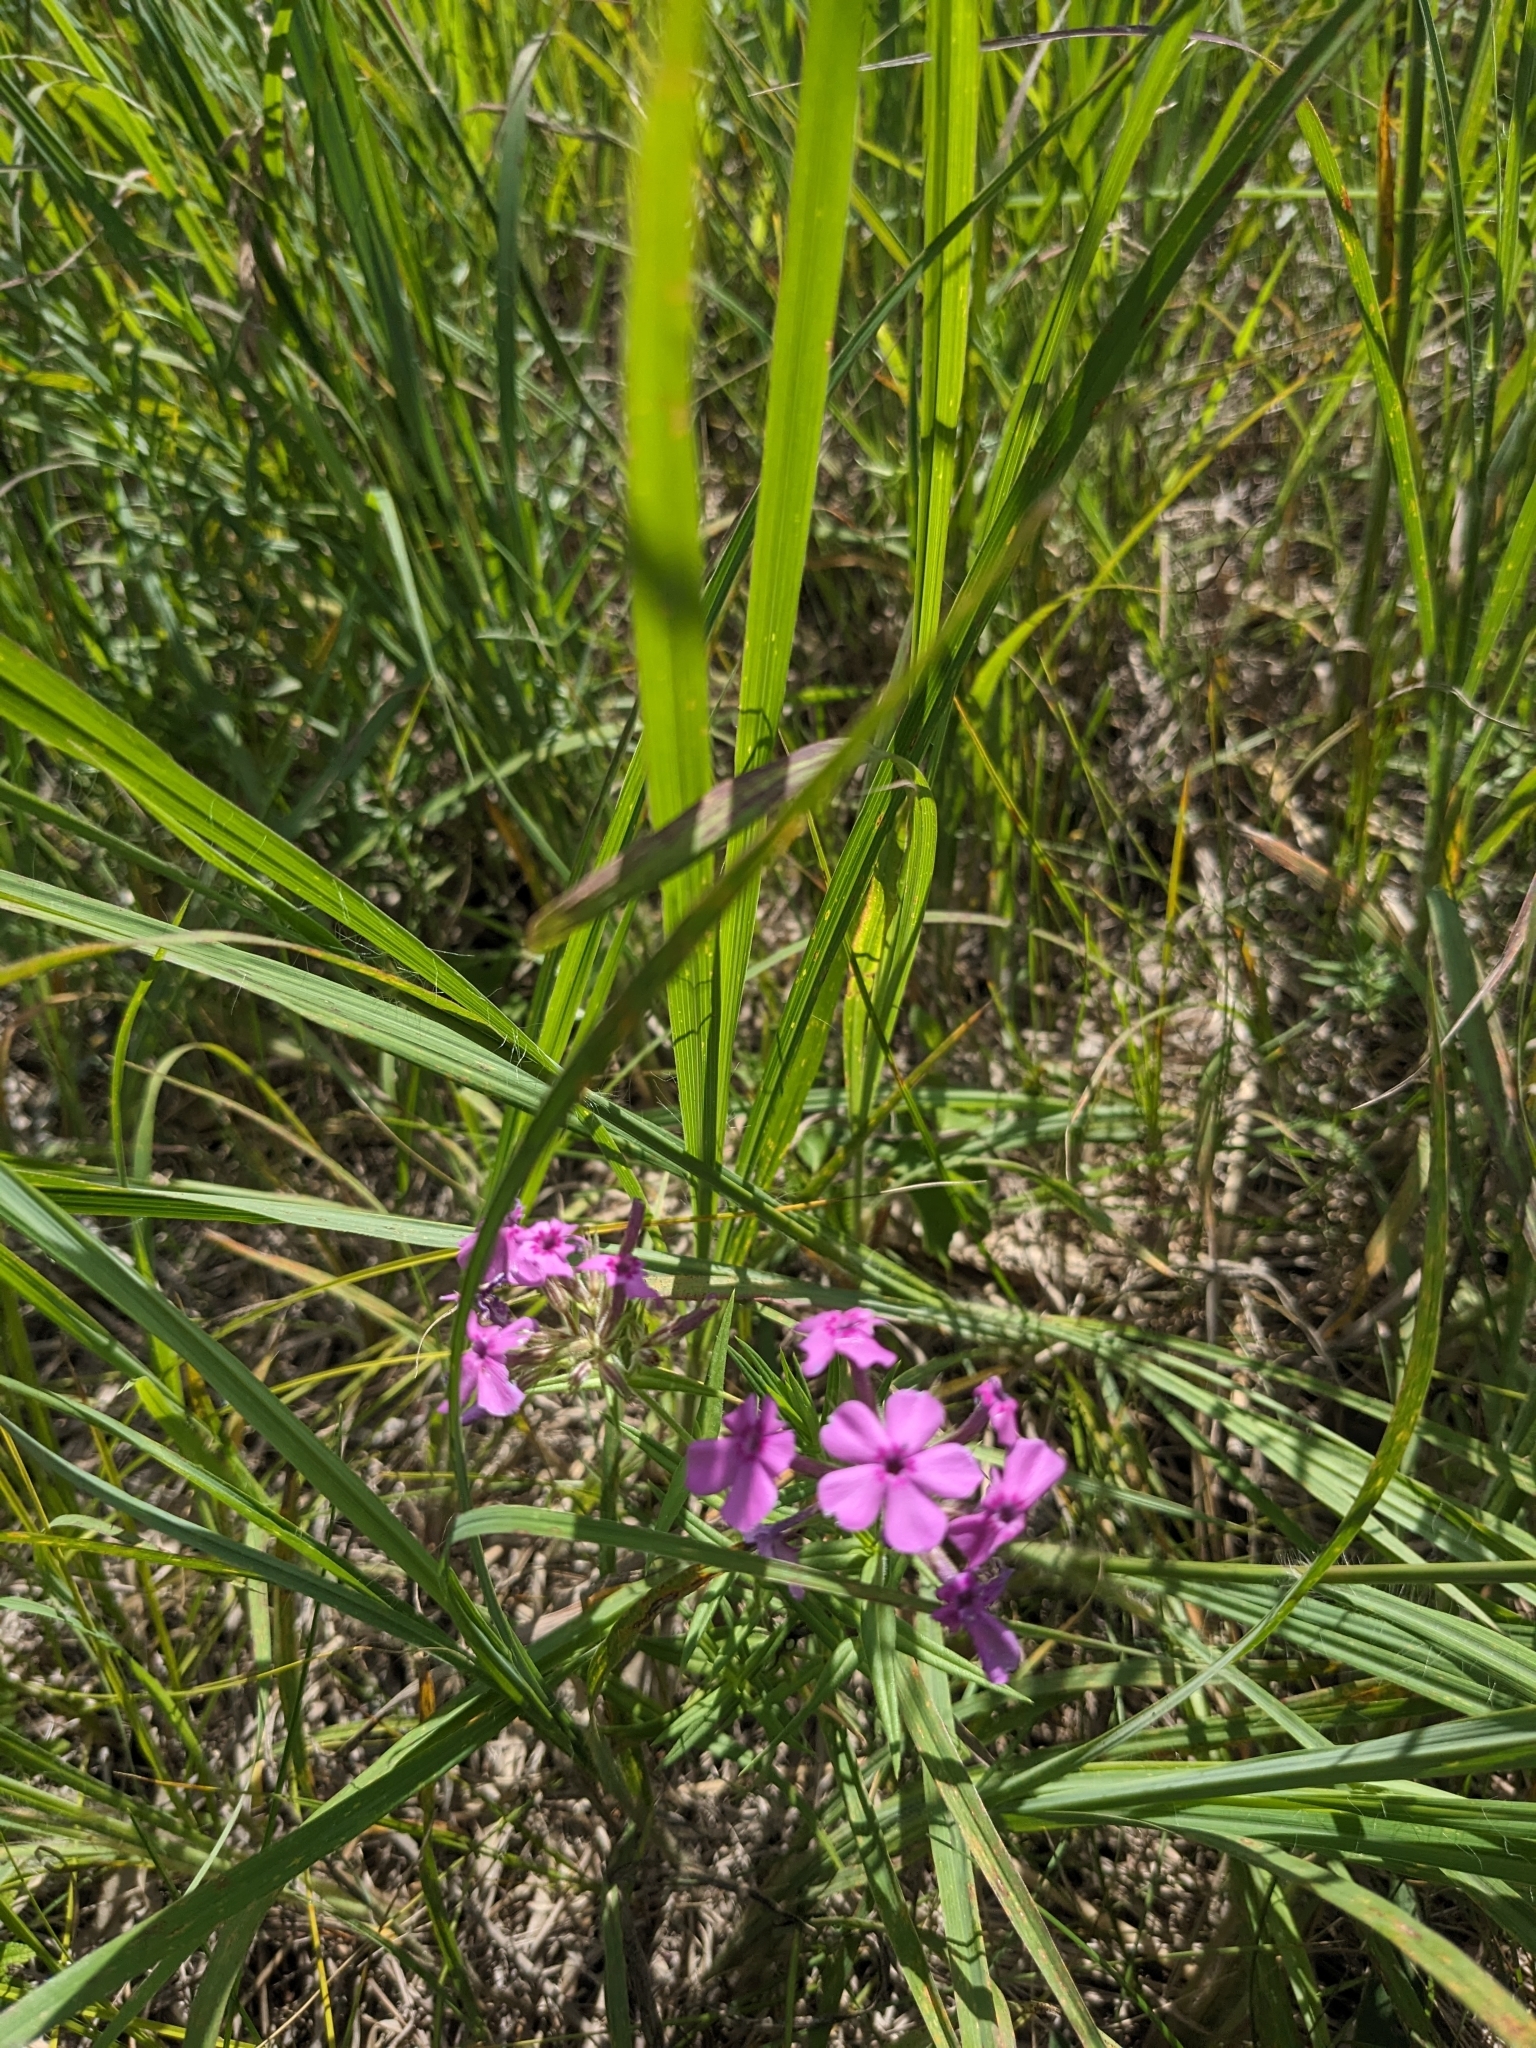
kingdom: Plantae
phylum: Tracheophyta
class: Magnoliopsida
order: Ericales
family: Polemoniaceae
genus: Phlox
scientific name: Phlox pilosa
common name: Prairie phlox
